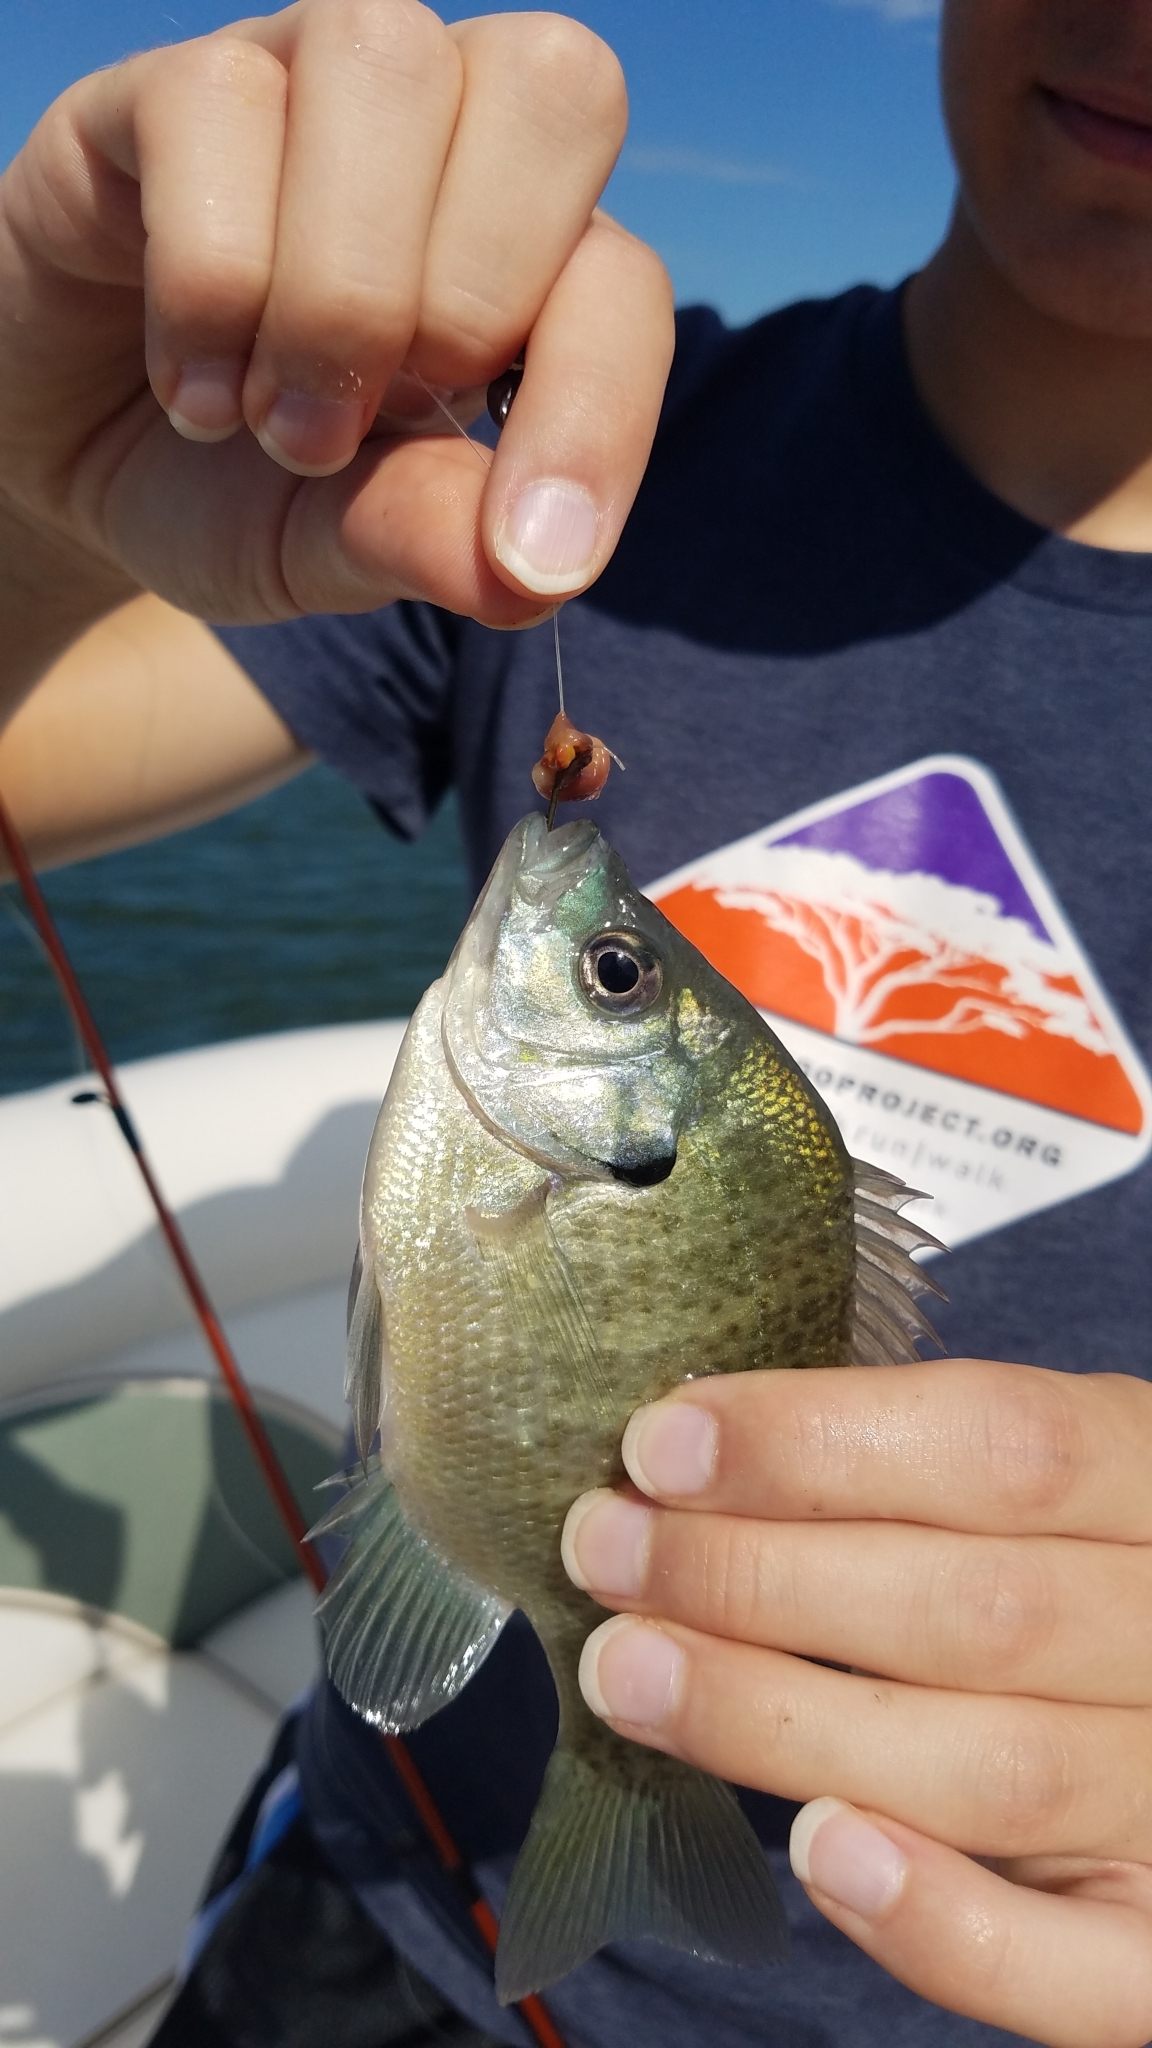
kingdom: Animalia
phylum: Chordata
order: Perciformes
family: Centrarchidae
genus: Lepomis
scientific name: Lepomis macrochirus
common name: Bluegill
